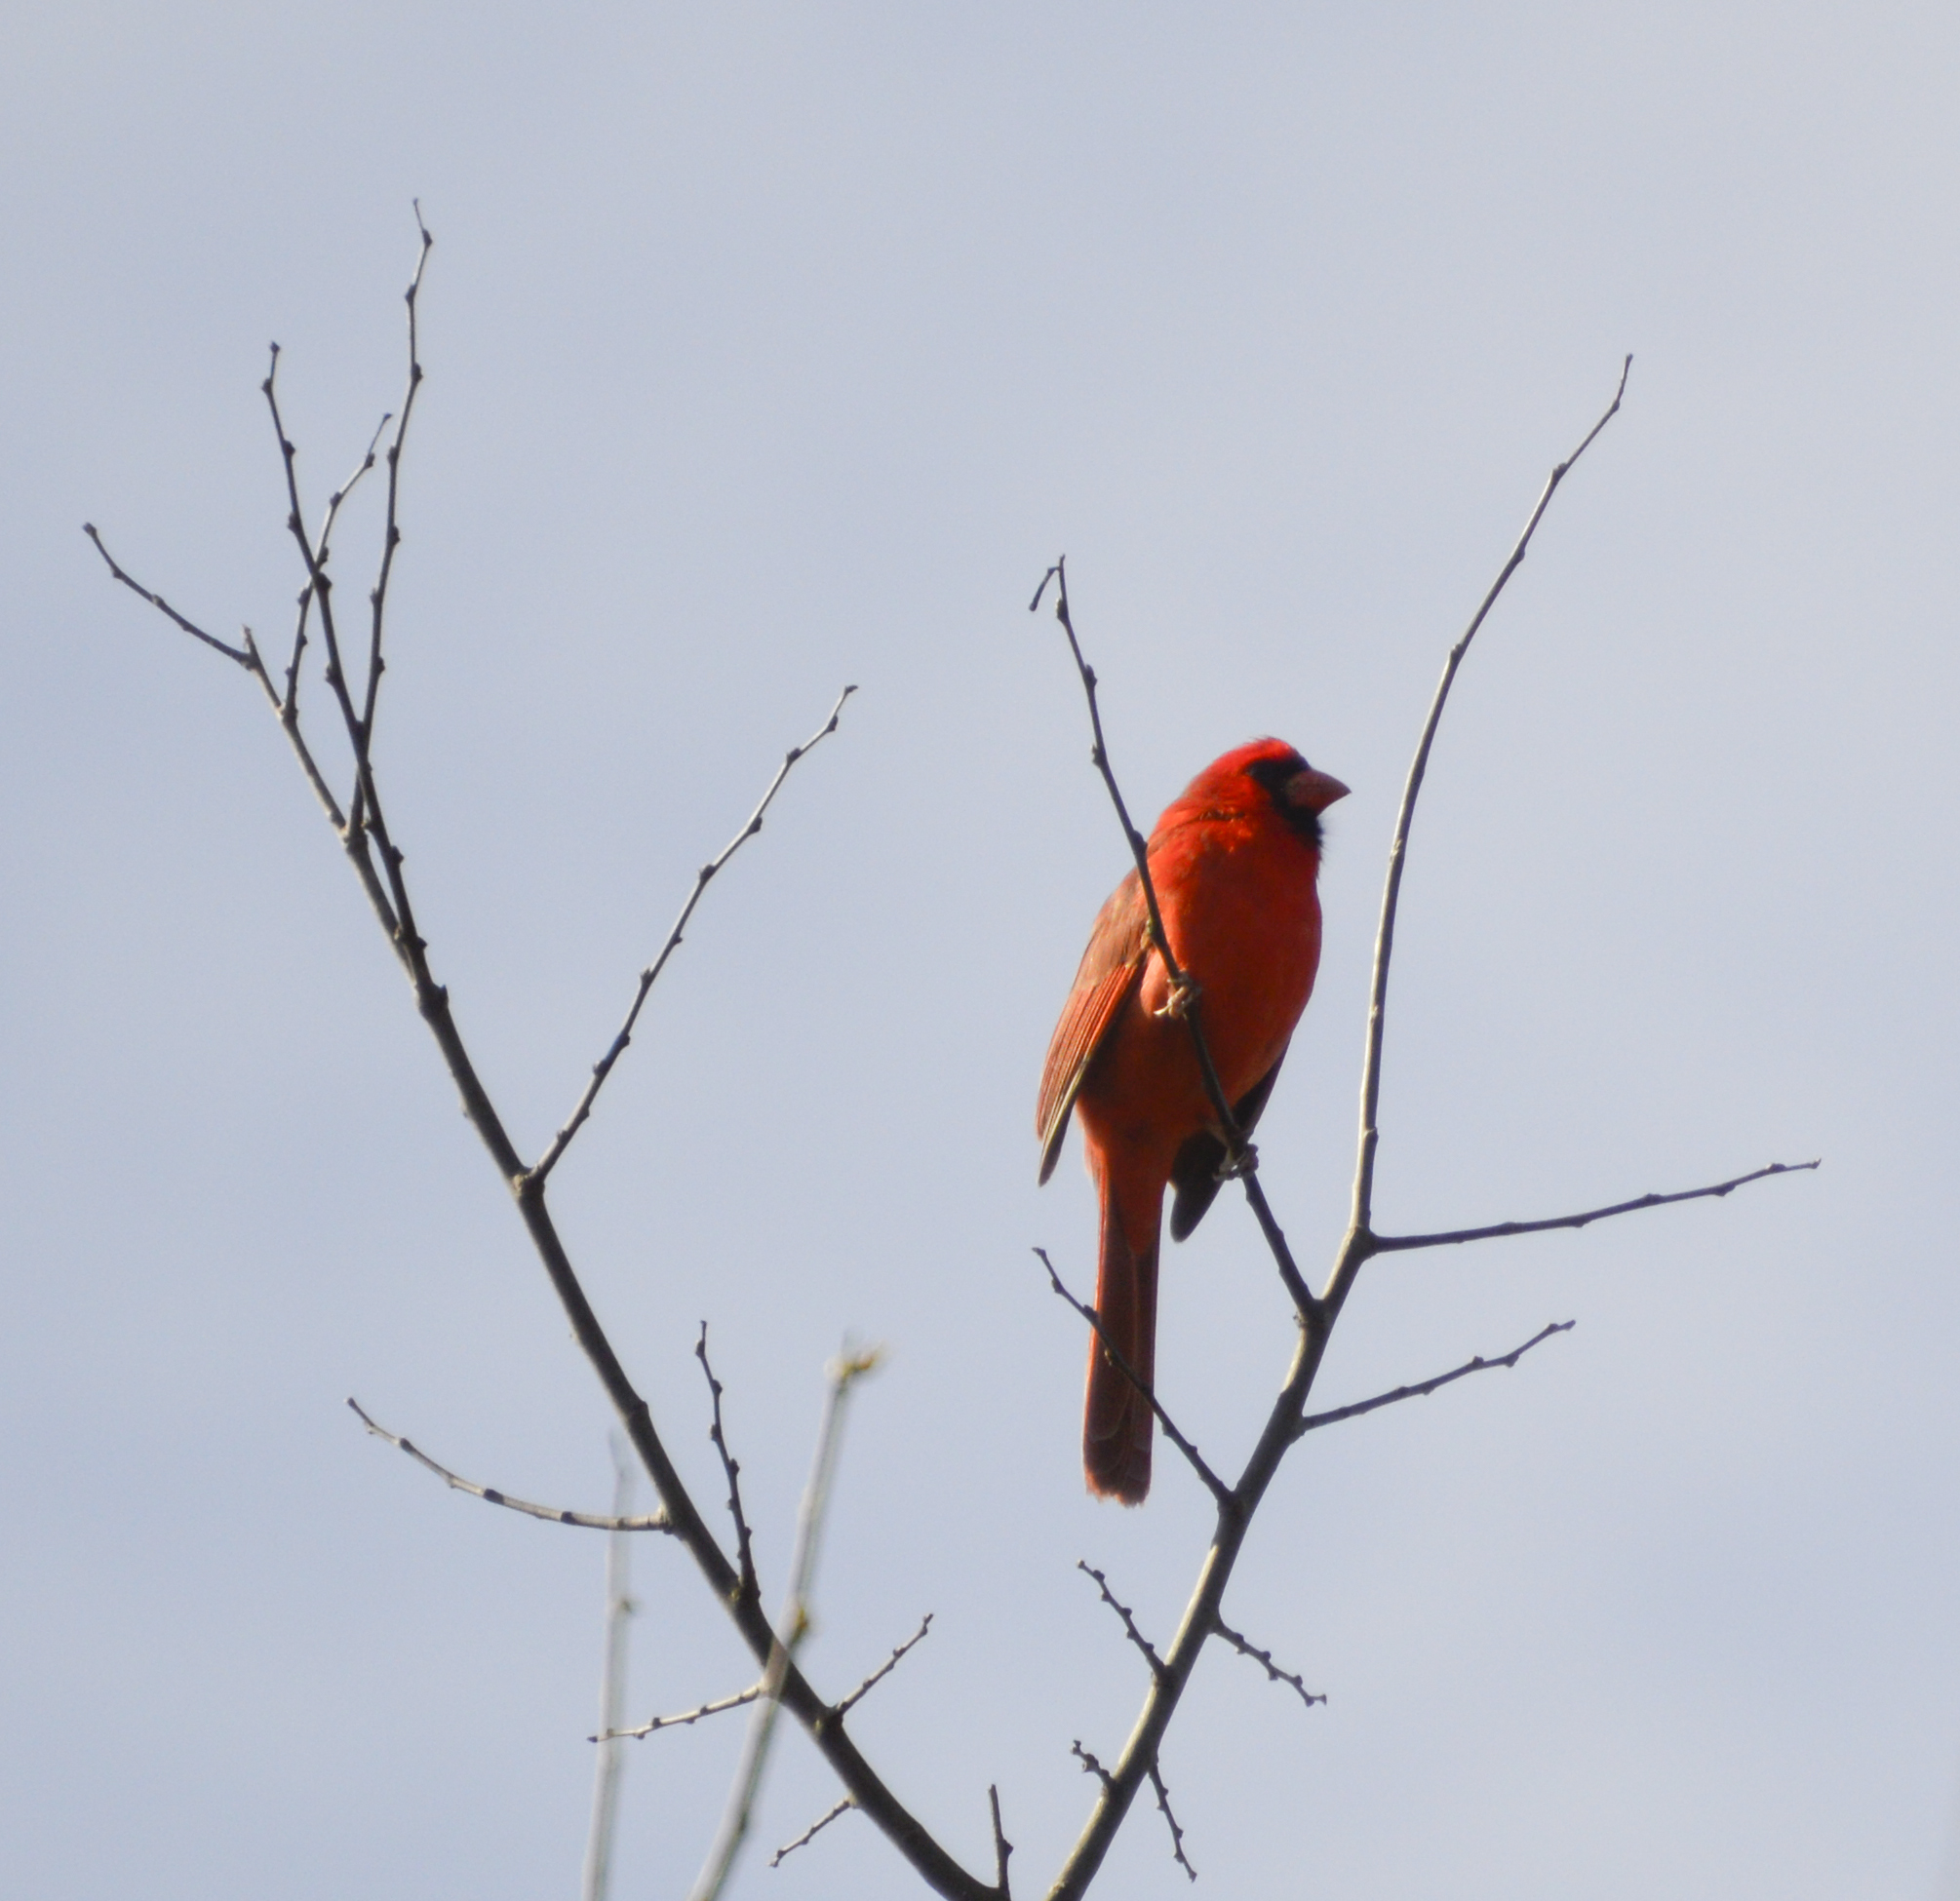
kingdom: Animalia
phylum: Chordata
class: Aves
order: Passeriformes
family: Cardinalidae
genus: Cardinalis
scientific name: Cardinalis cardinalis
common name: Northern cardinal
